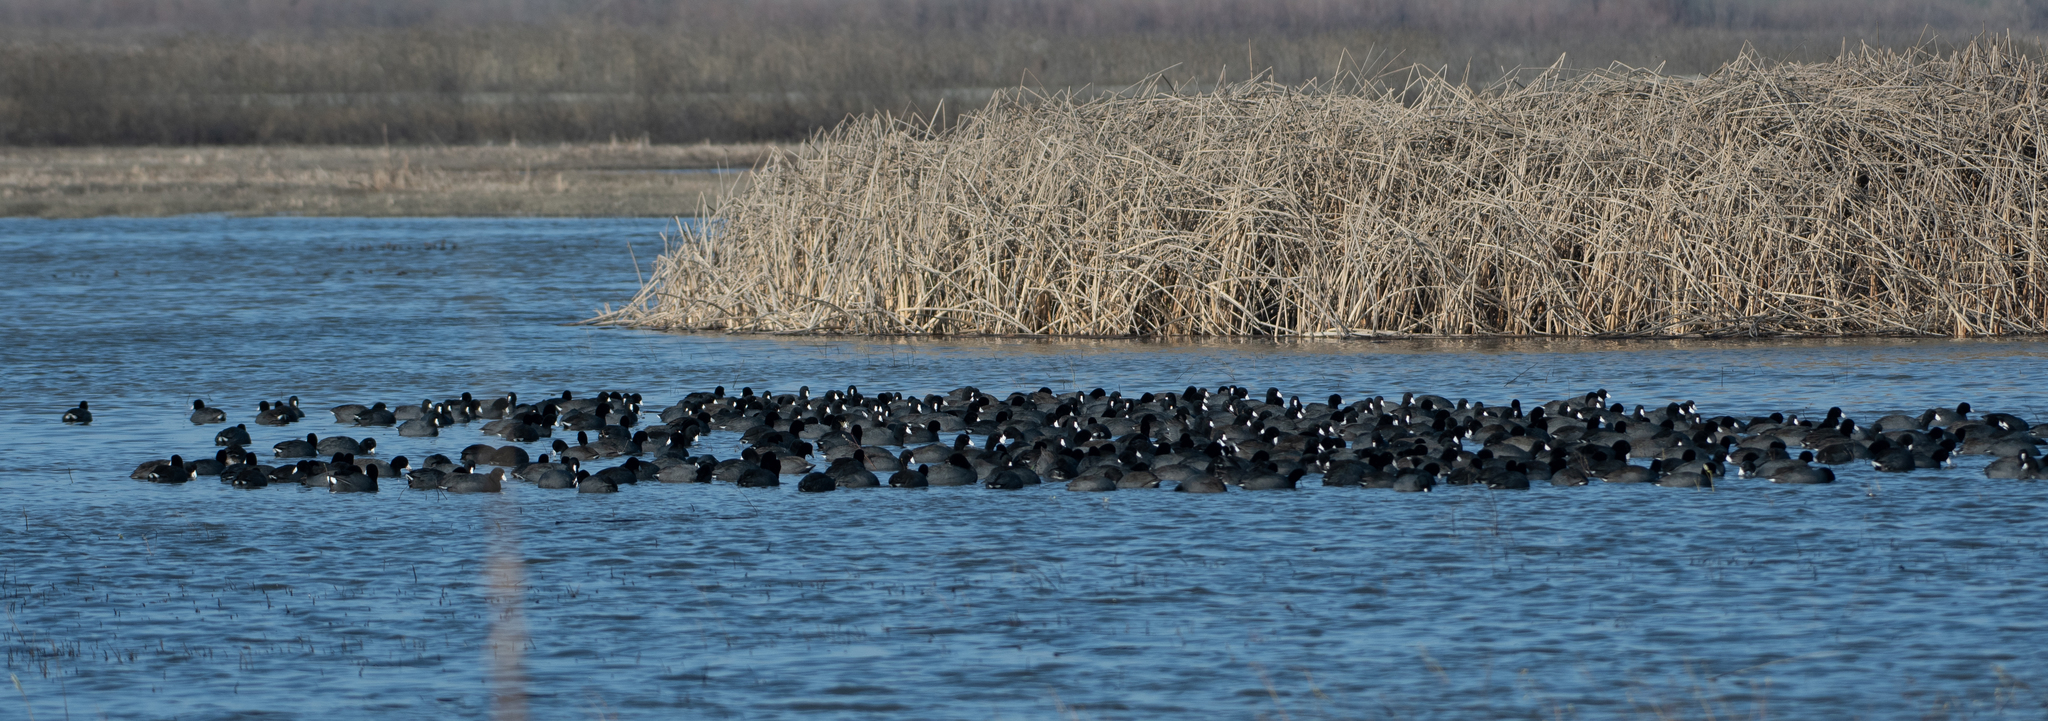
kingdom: Animalia
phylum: Chordata
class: Aves
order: Gruiformes
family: Rallidae
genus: Fulica
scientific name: Fulica americana
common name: American coot
